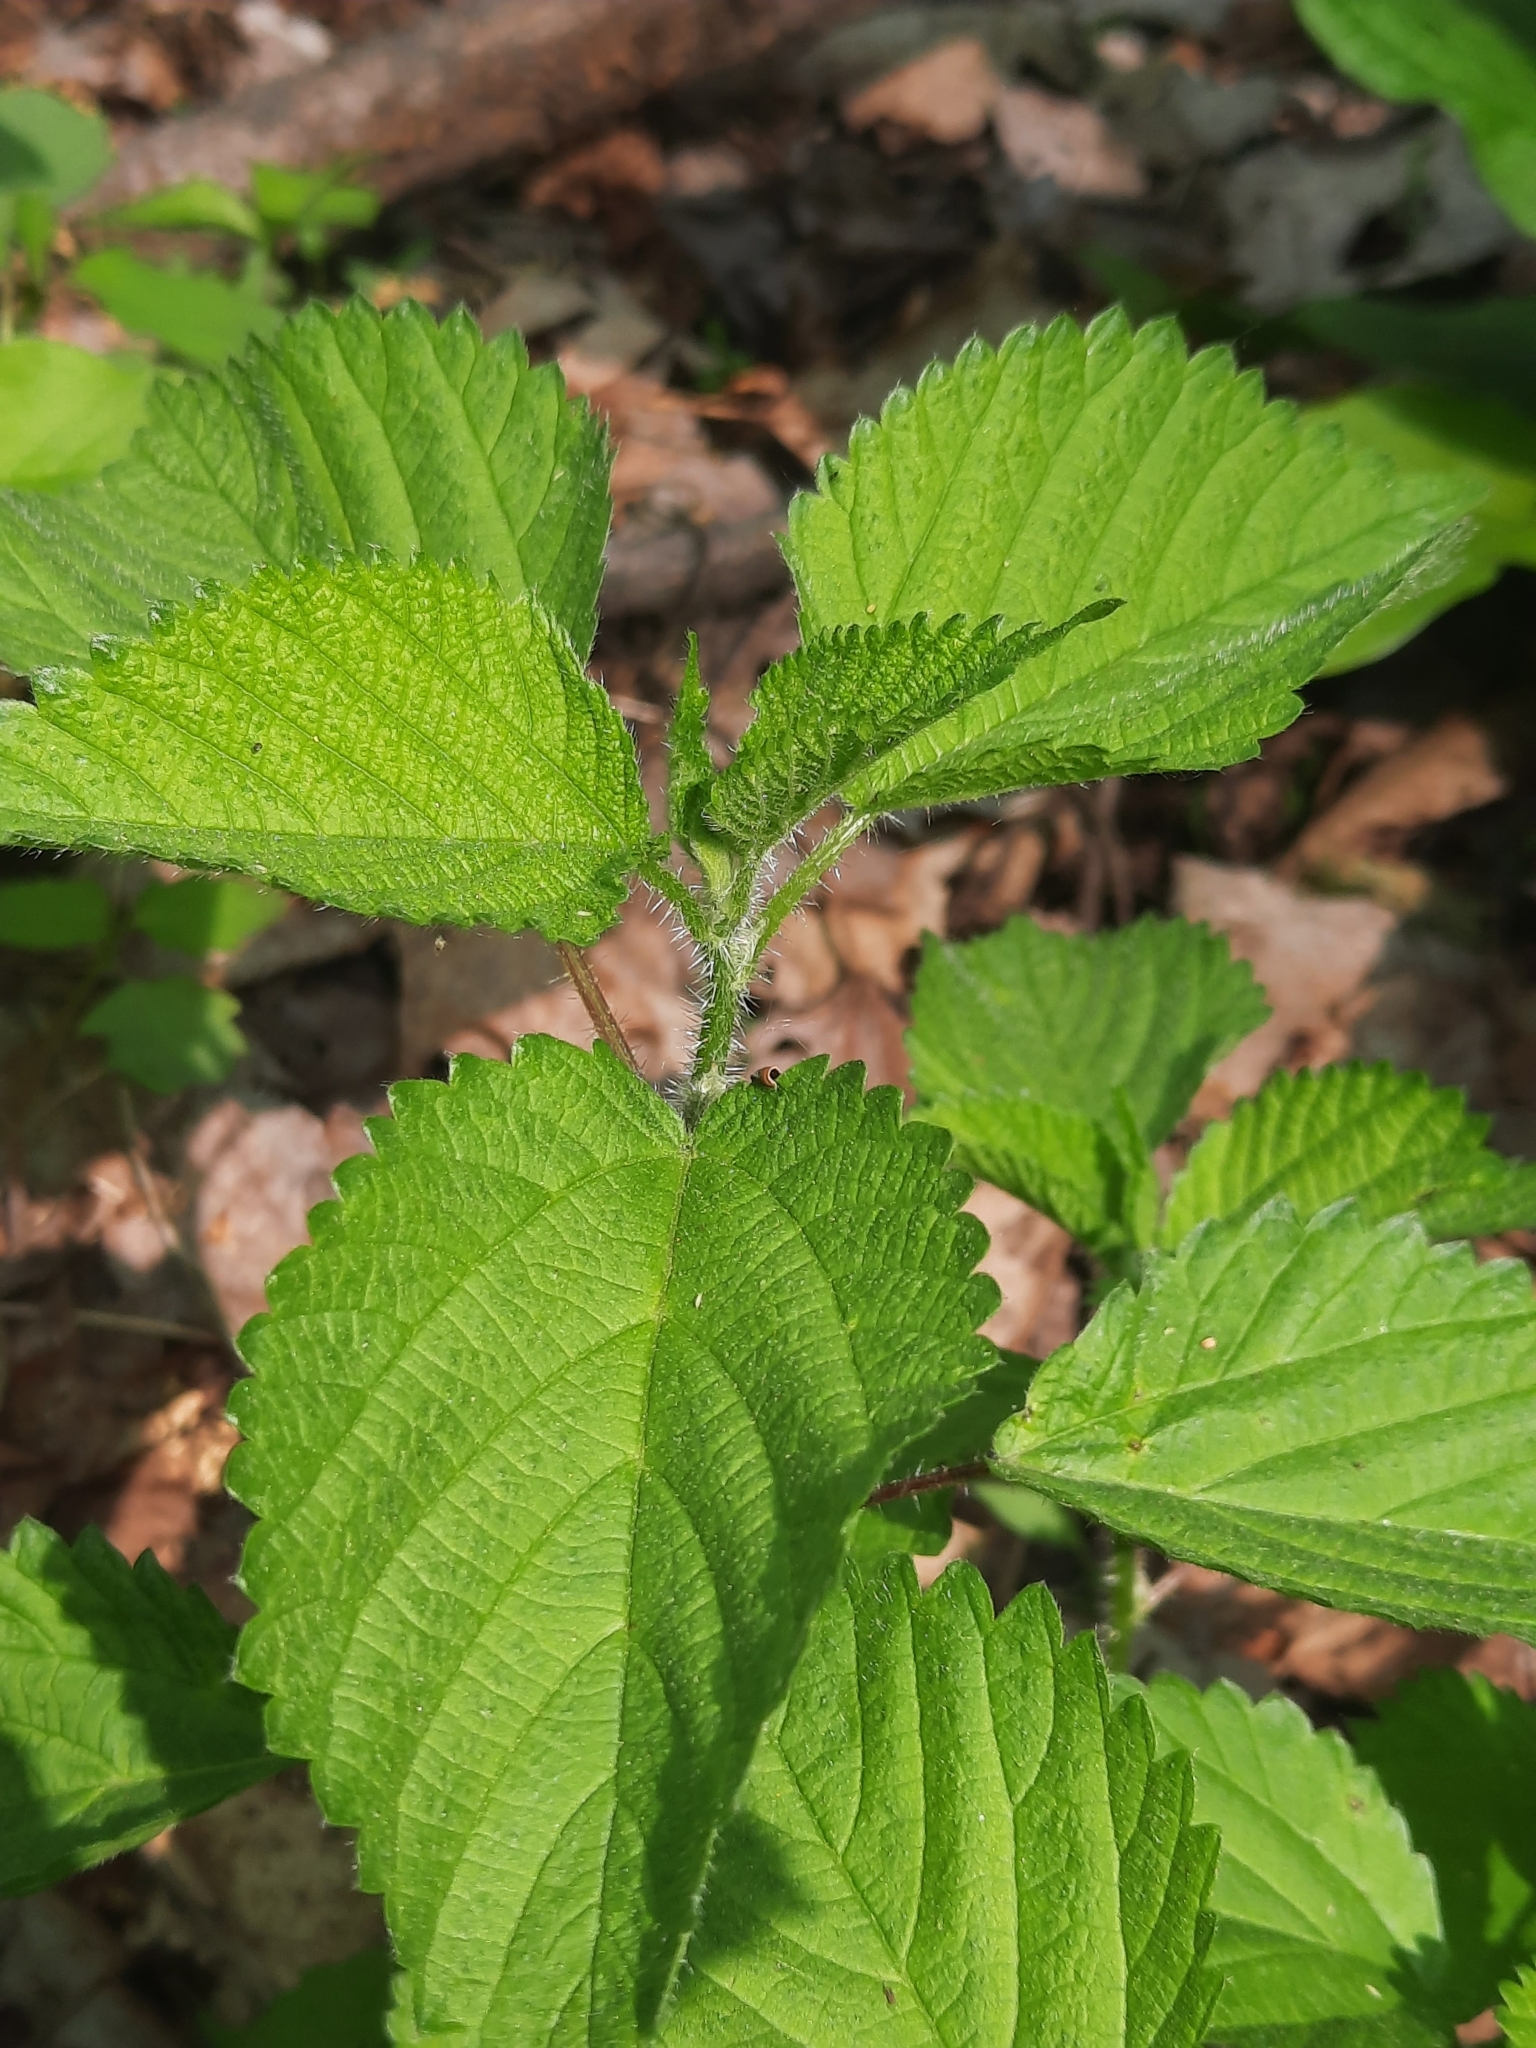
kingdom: Plantae
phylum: Tracheophyta
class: Magnoliopsida
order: Rosales
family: Urticaceae
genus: Laportea
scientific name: Laportea canadensis
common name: Canada nettle
